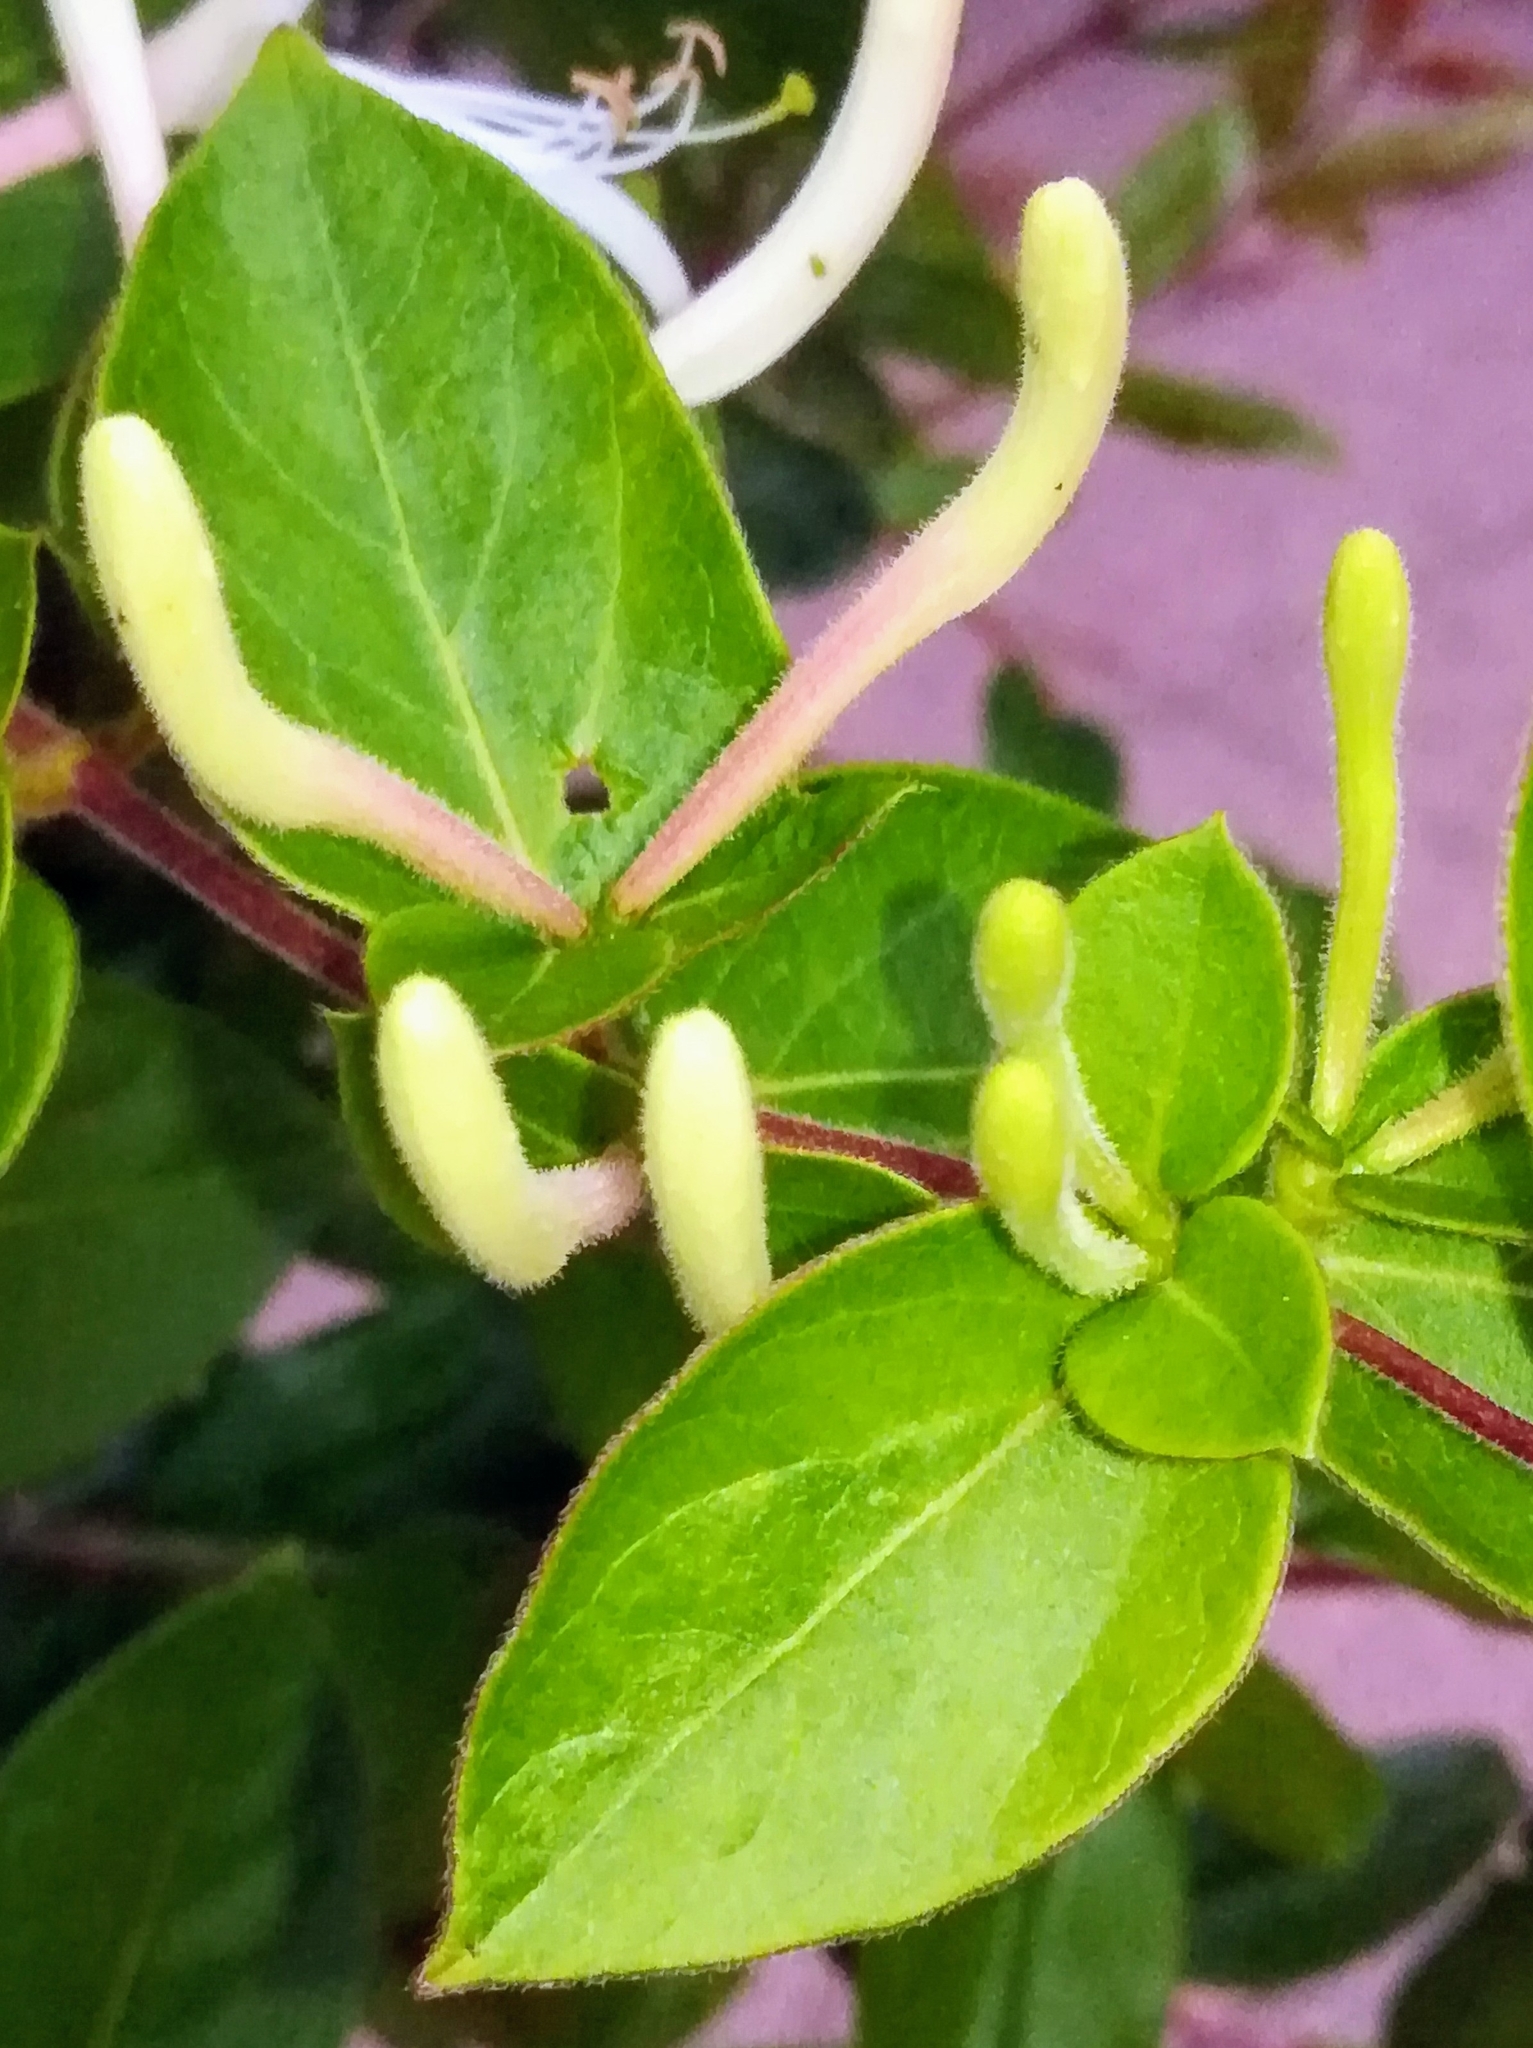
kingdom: Plantae
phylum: Tracheophyta
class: Magnoliopsida
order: Dipsacales
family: Caprifoliaceae
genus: Lonicera
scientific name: Lonicera japonica
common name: Japanese honeysuckle
